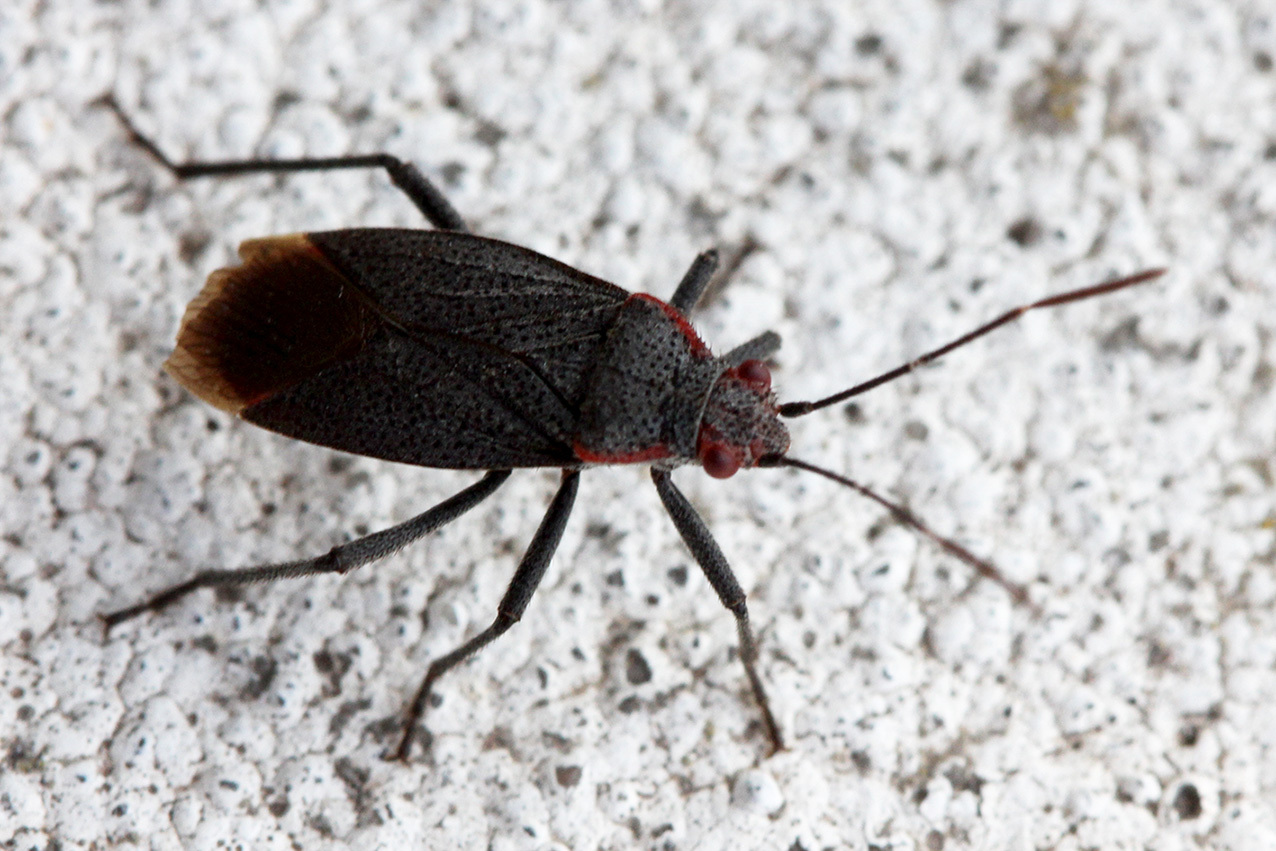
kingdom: Animalia
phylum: Arthropoda
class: Insecta
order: Hemiptera
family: Rhopalidae
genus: Jadera
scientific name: Jadera parapectoralis
